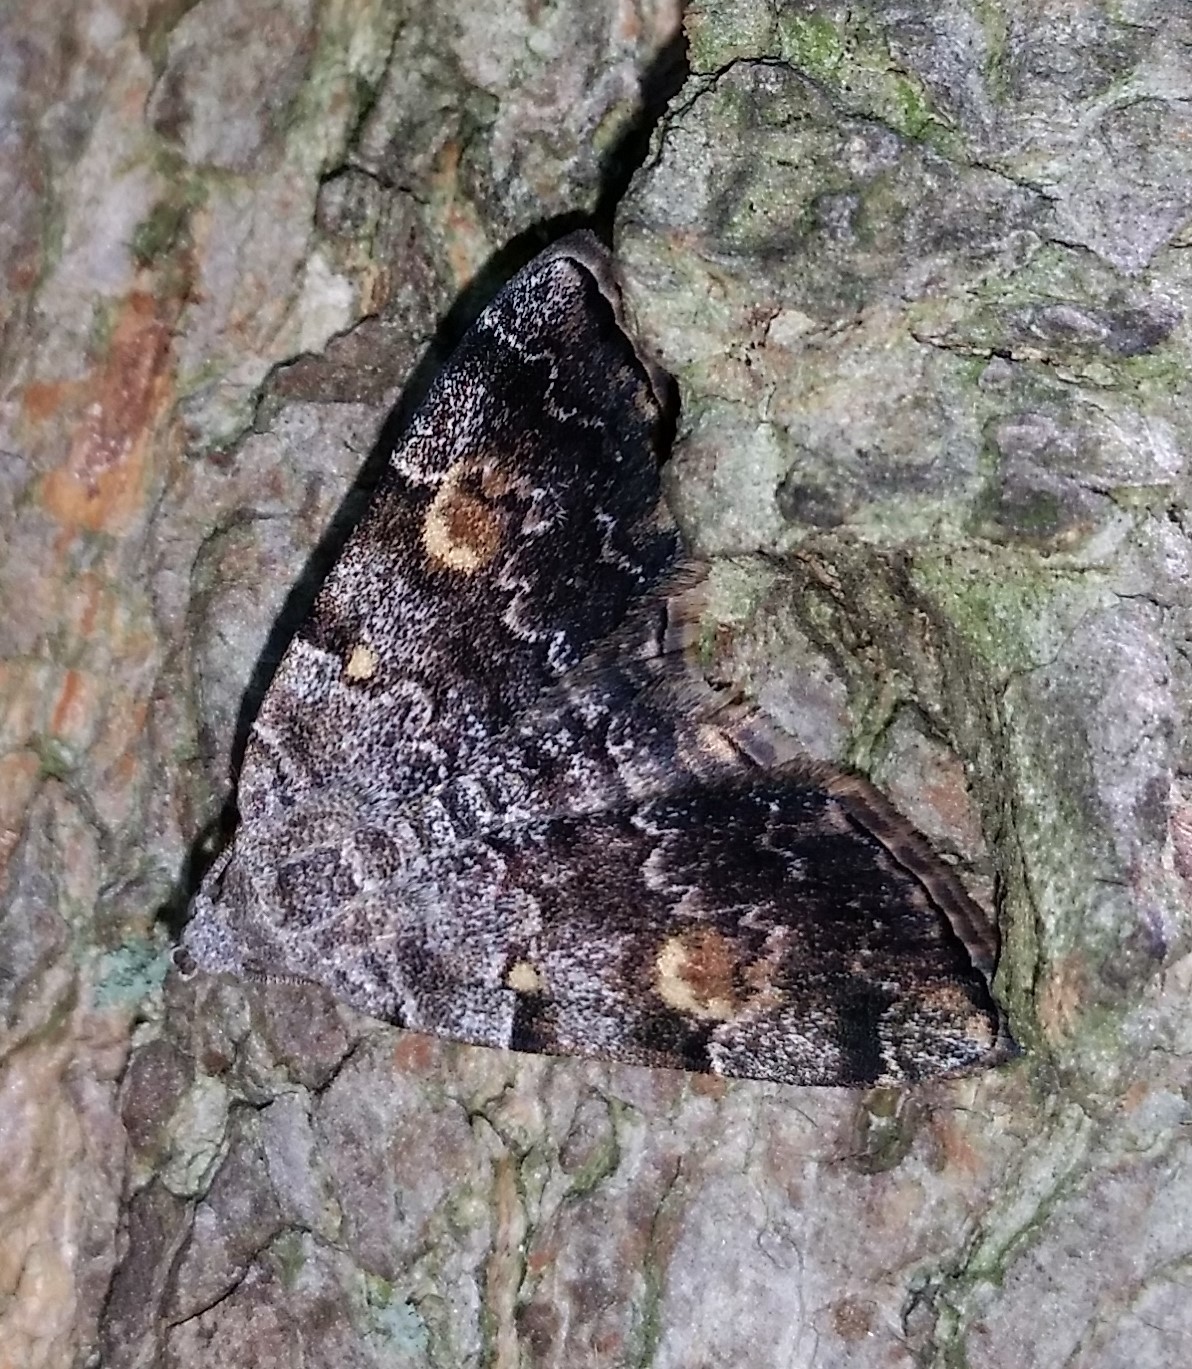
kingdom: Animalia
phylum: Arthropoda
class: Insecta
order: Lepidoptera
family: Erebidae
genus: Idia
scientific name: Idia americalis
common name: American idia moth
